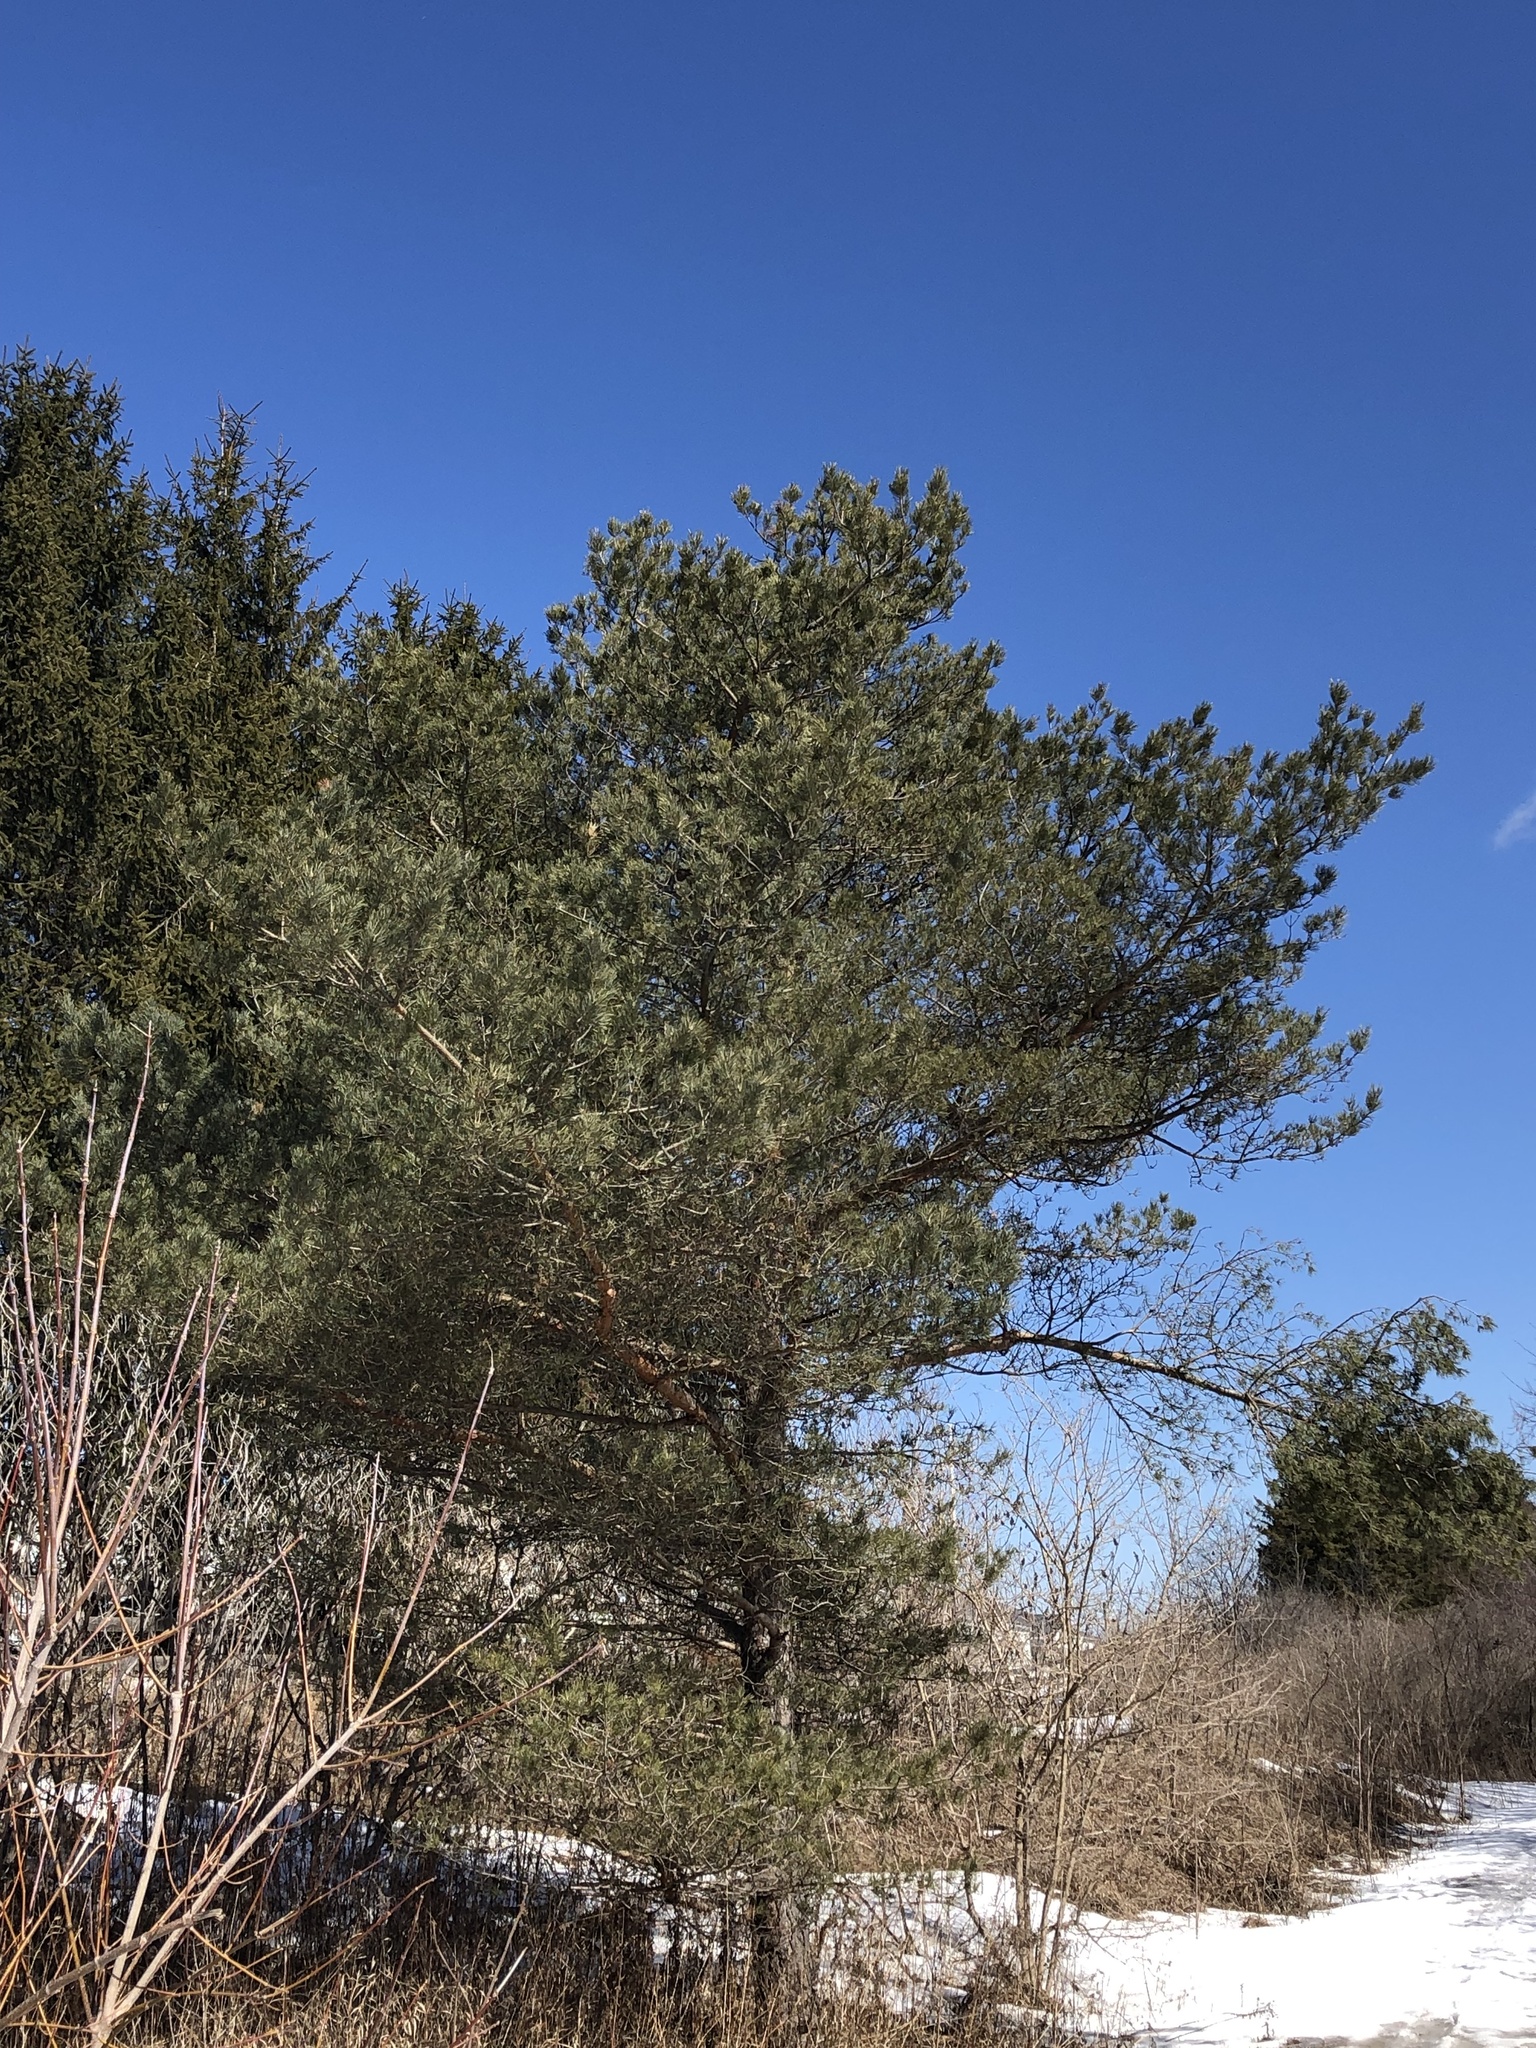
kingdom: Plantae
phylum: Tracheophyta
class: Pinopsida
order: Pinales
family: Pinaceae
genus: Pinus
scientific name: Pinus sylvestris
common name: Scots pine
